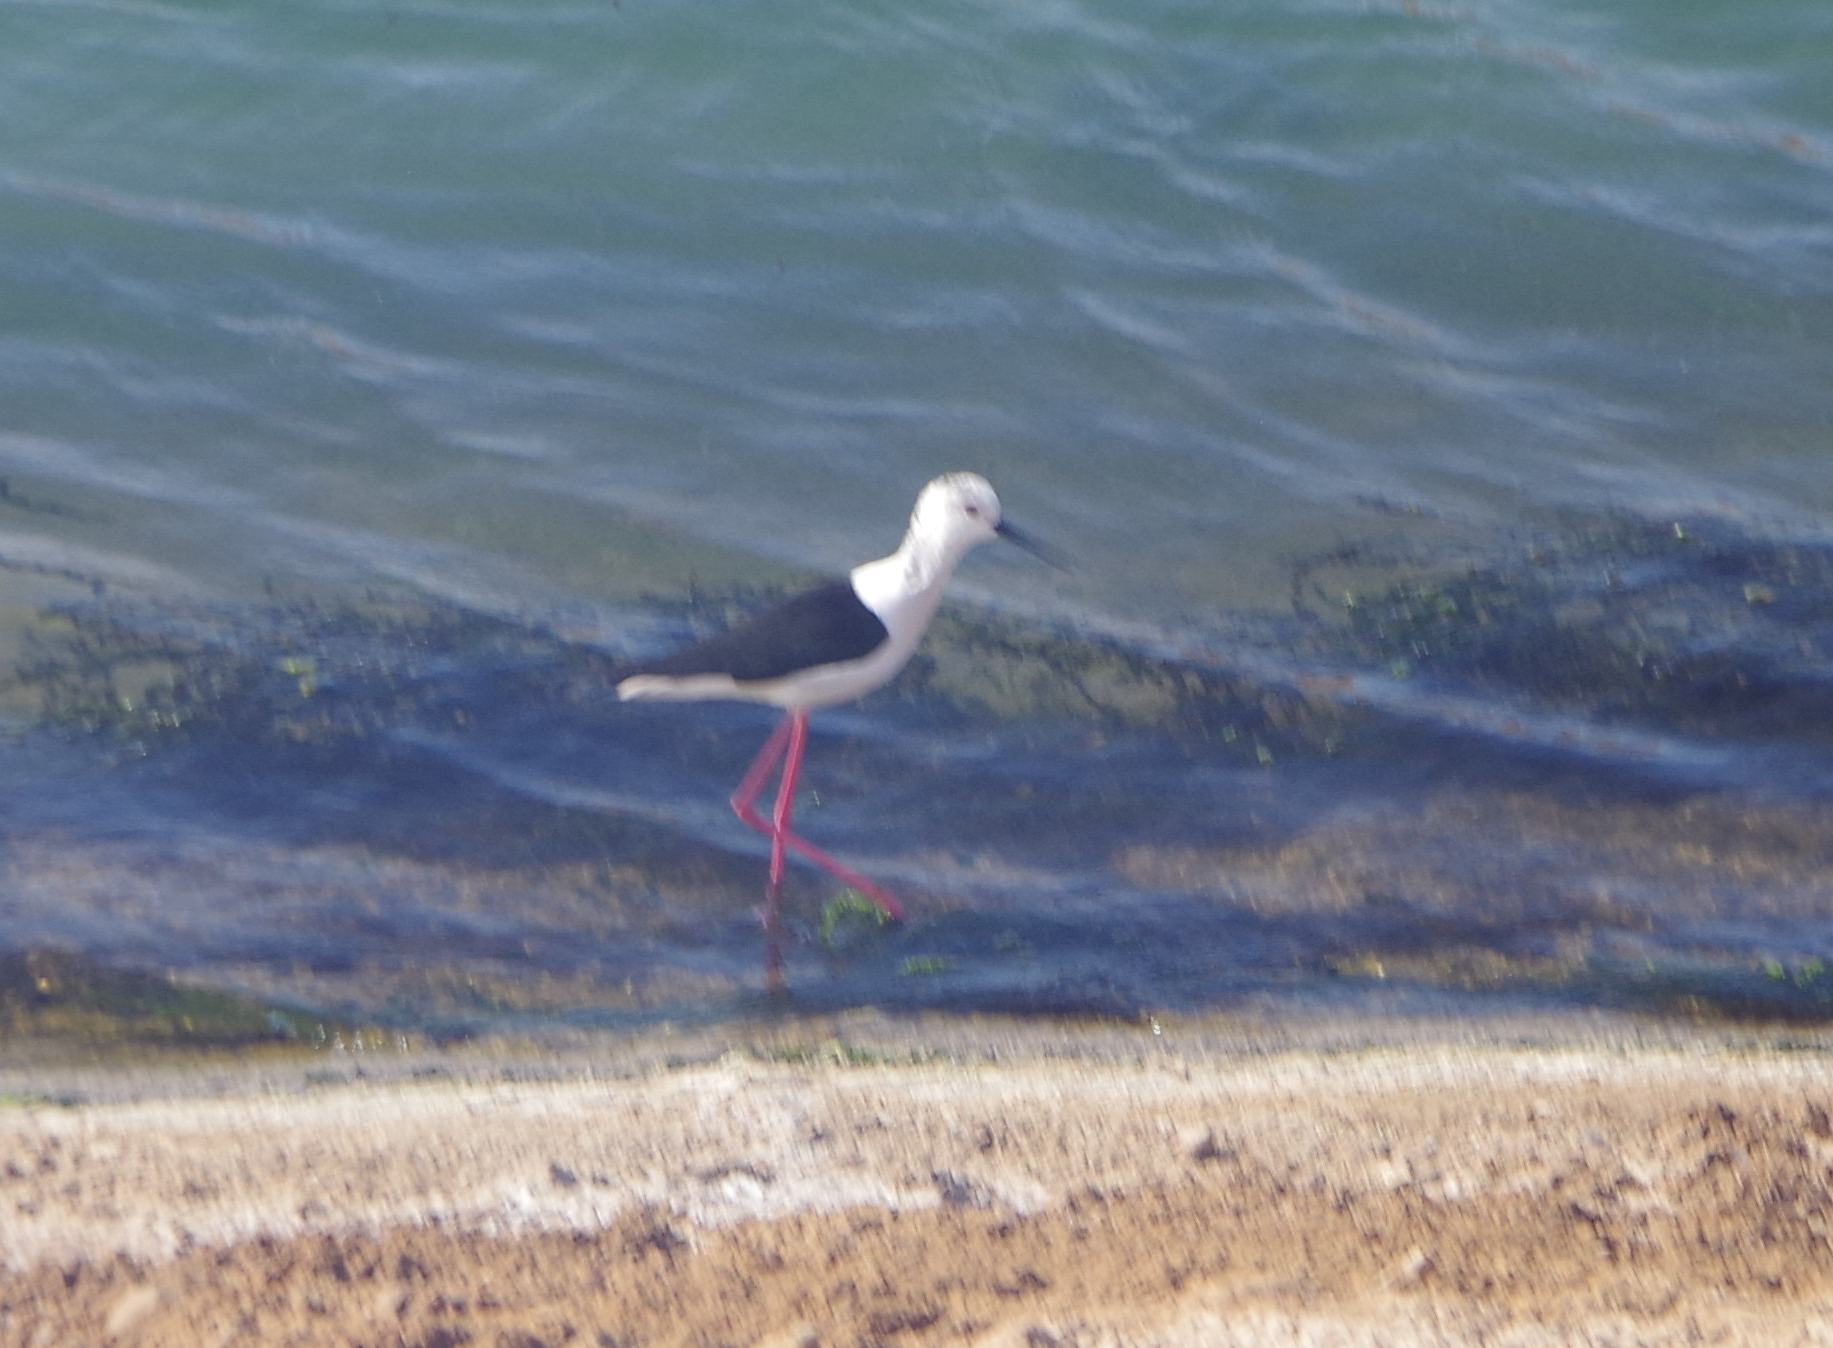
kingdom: Animalia
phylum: Chordata
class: Aves
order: Charadriiformes
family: Recurvirostridae
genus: Himantopus
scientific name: Himantopus himantopus
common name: Black-winged stilt
